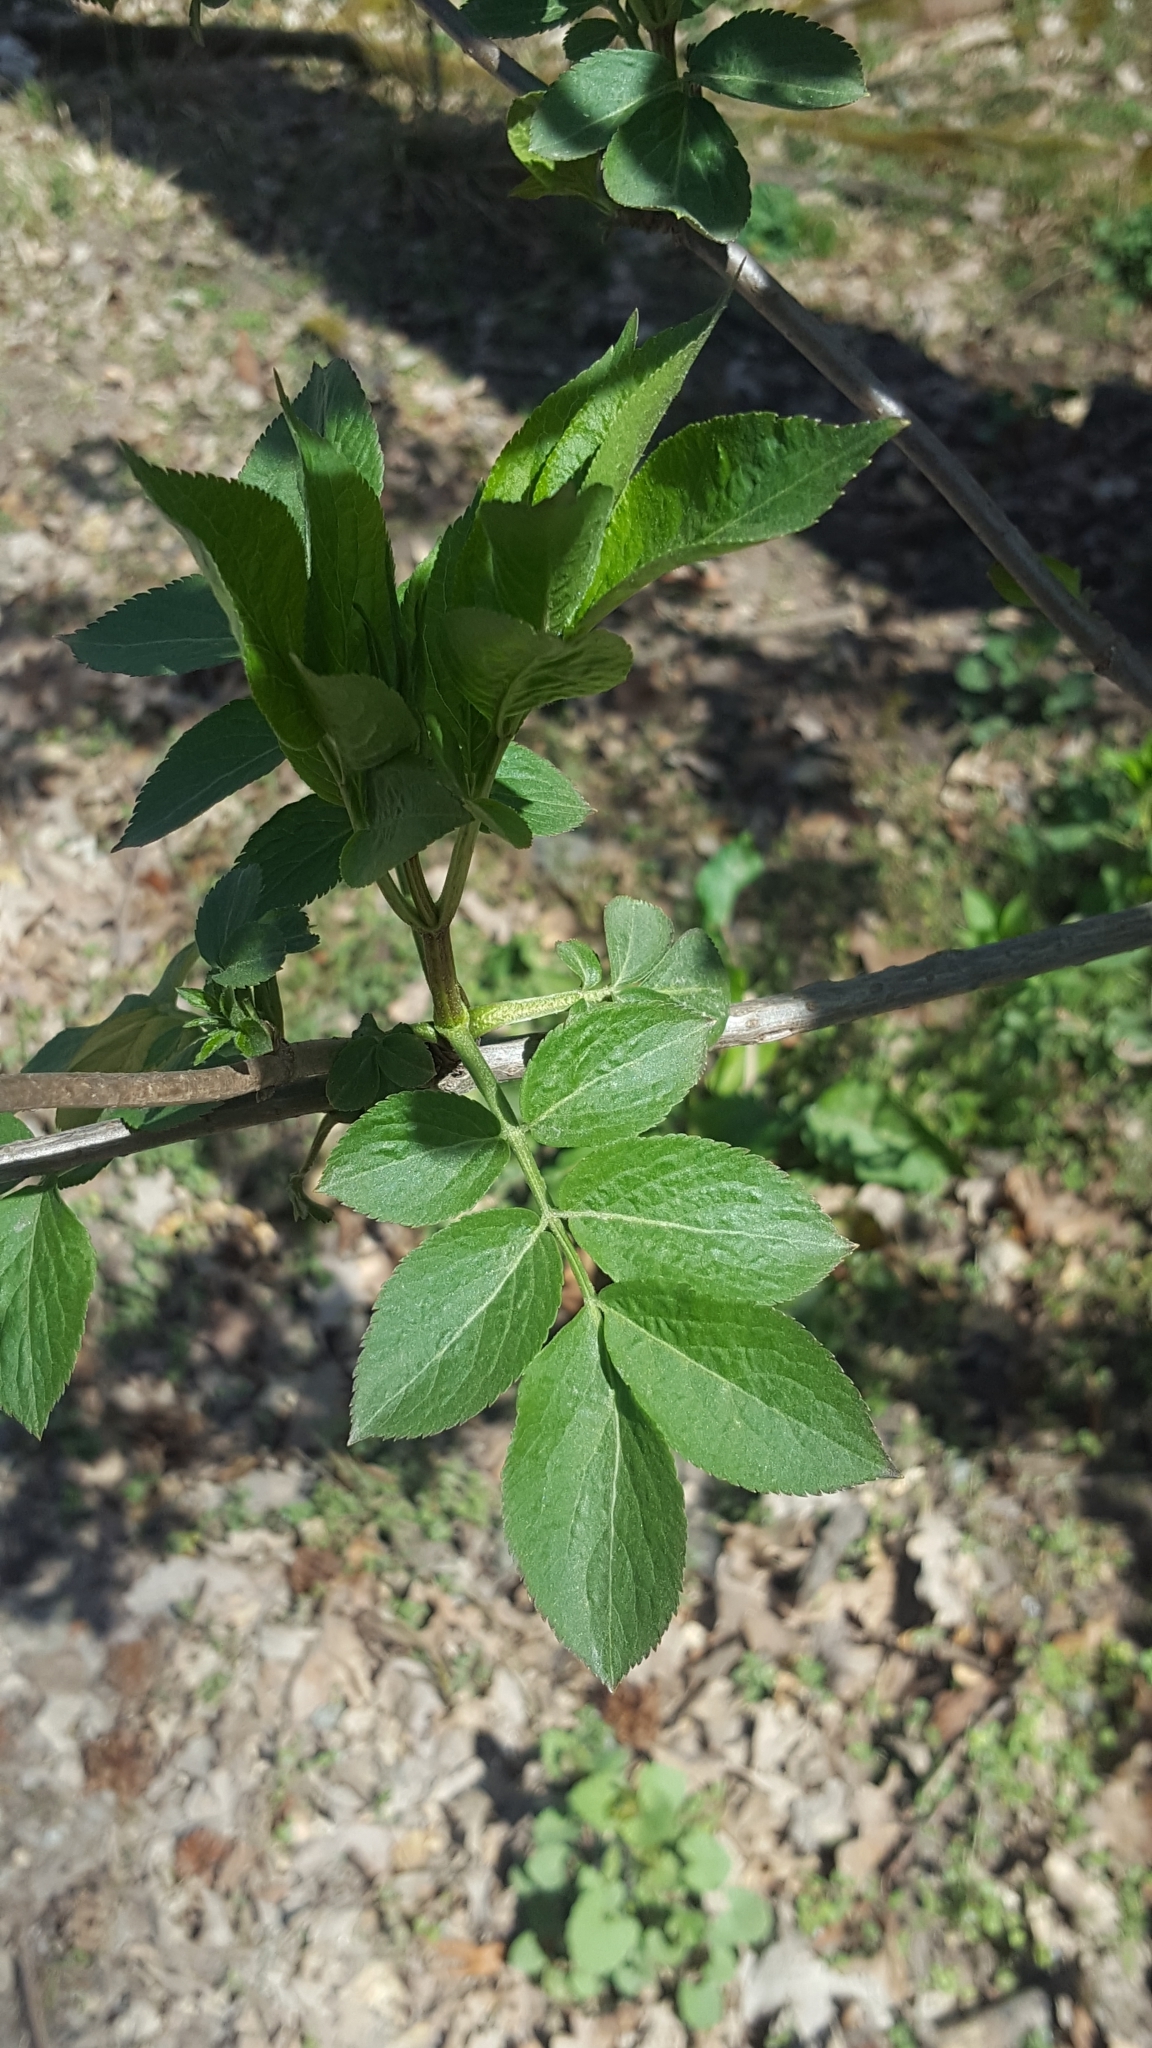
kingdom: Plantae
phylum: Tracheophyta
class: Magnoliopsida
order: Dipsacales
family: Viburnaceae
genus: Sambucus
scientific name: Sambucus nigra
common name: Elder
